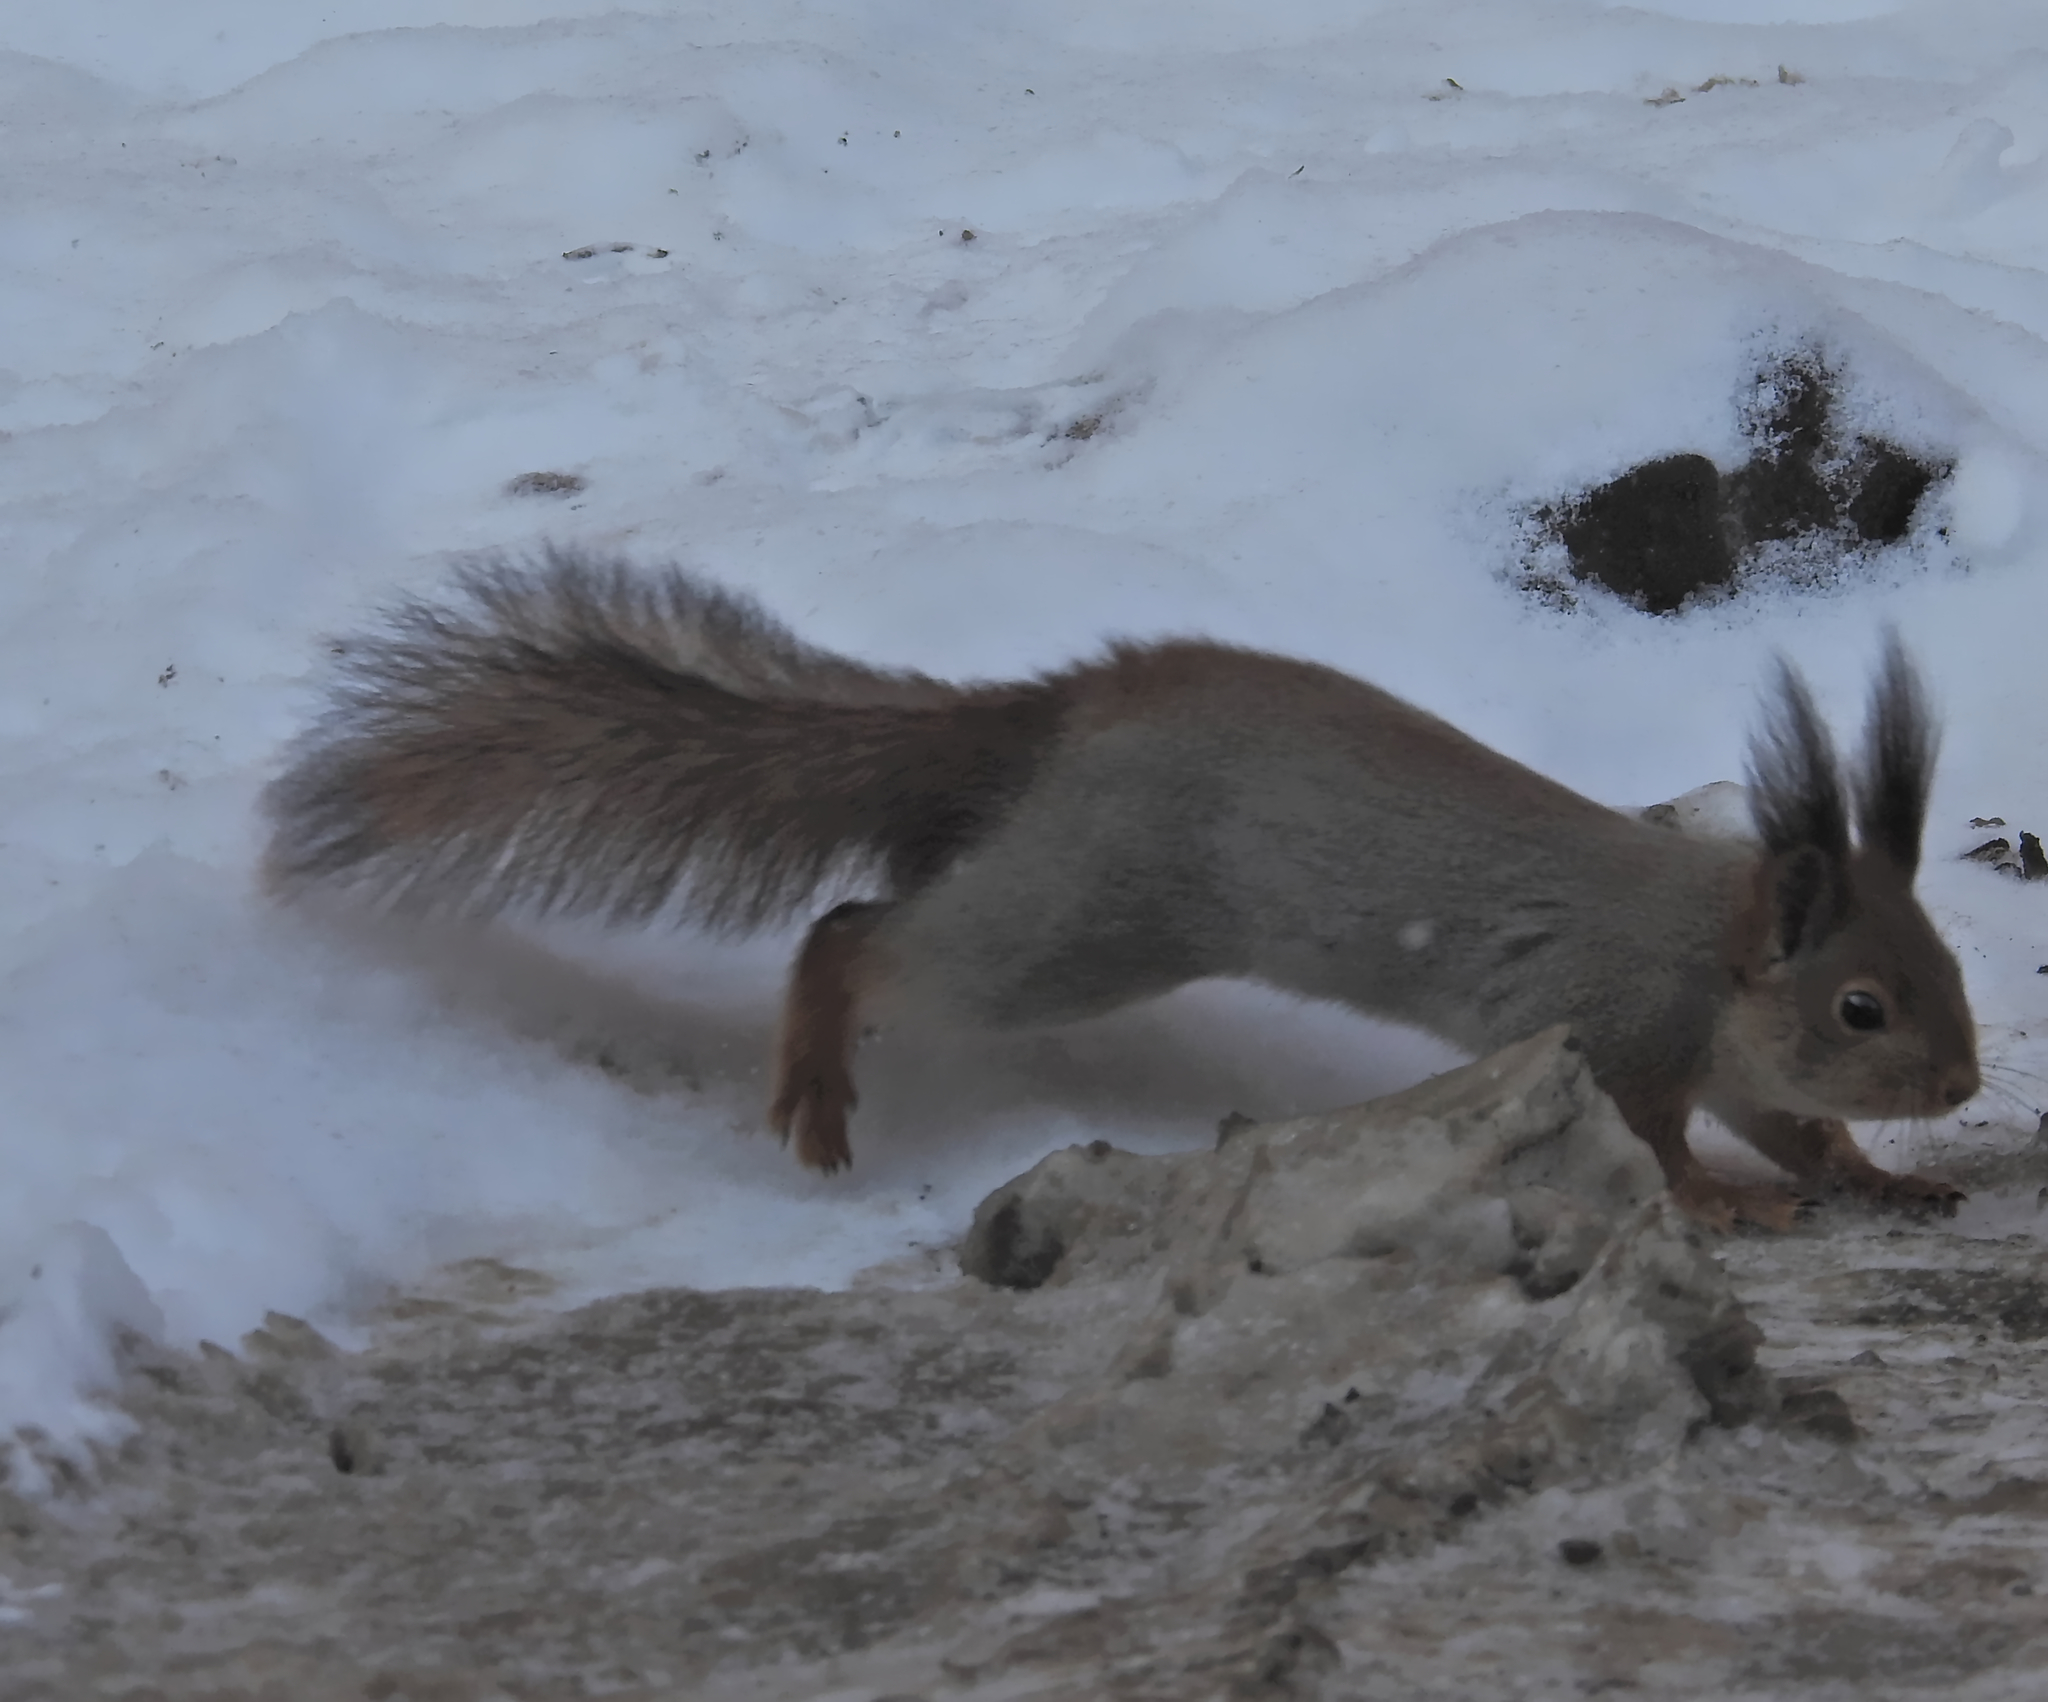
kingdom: Animalia
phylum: Chordata
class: Mammalia
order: Rodentia
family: Sciuridae
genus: Sciurus
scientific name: Sciurus vulgaris
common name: Eurasian red squirrel
